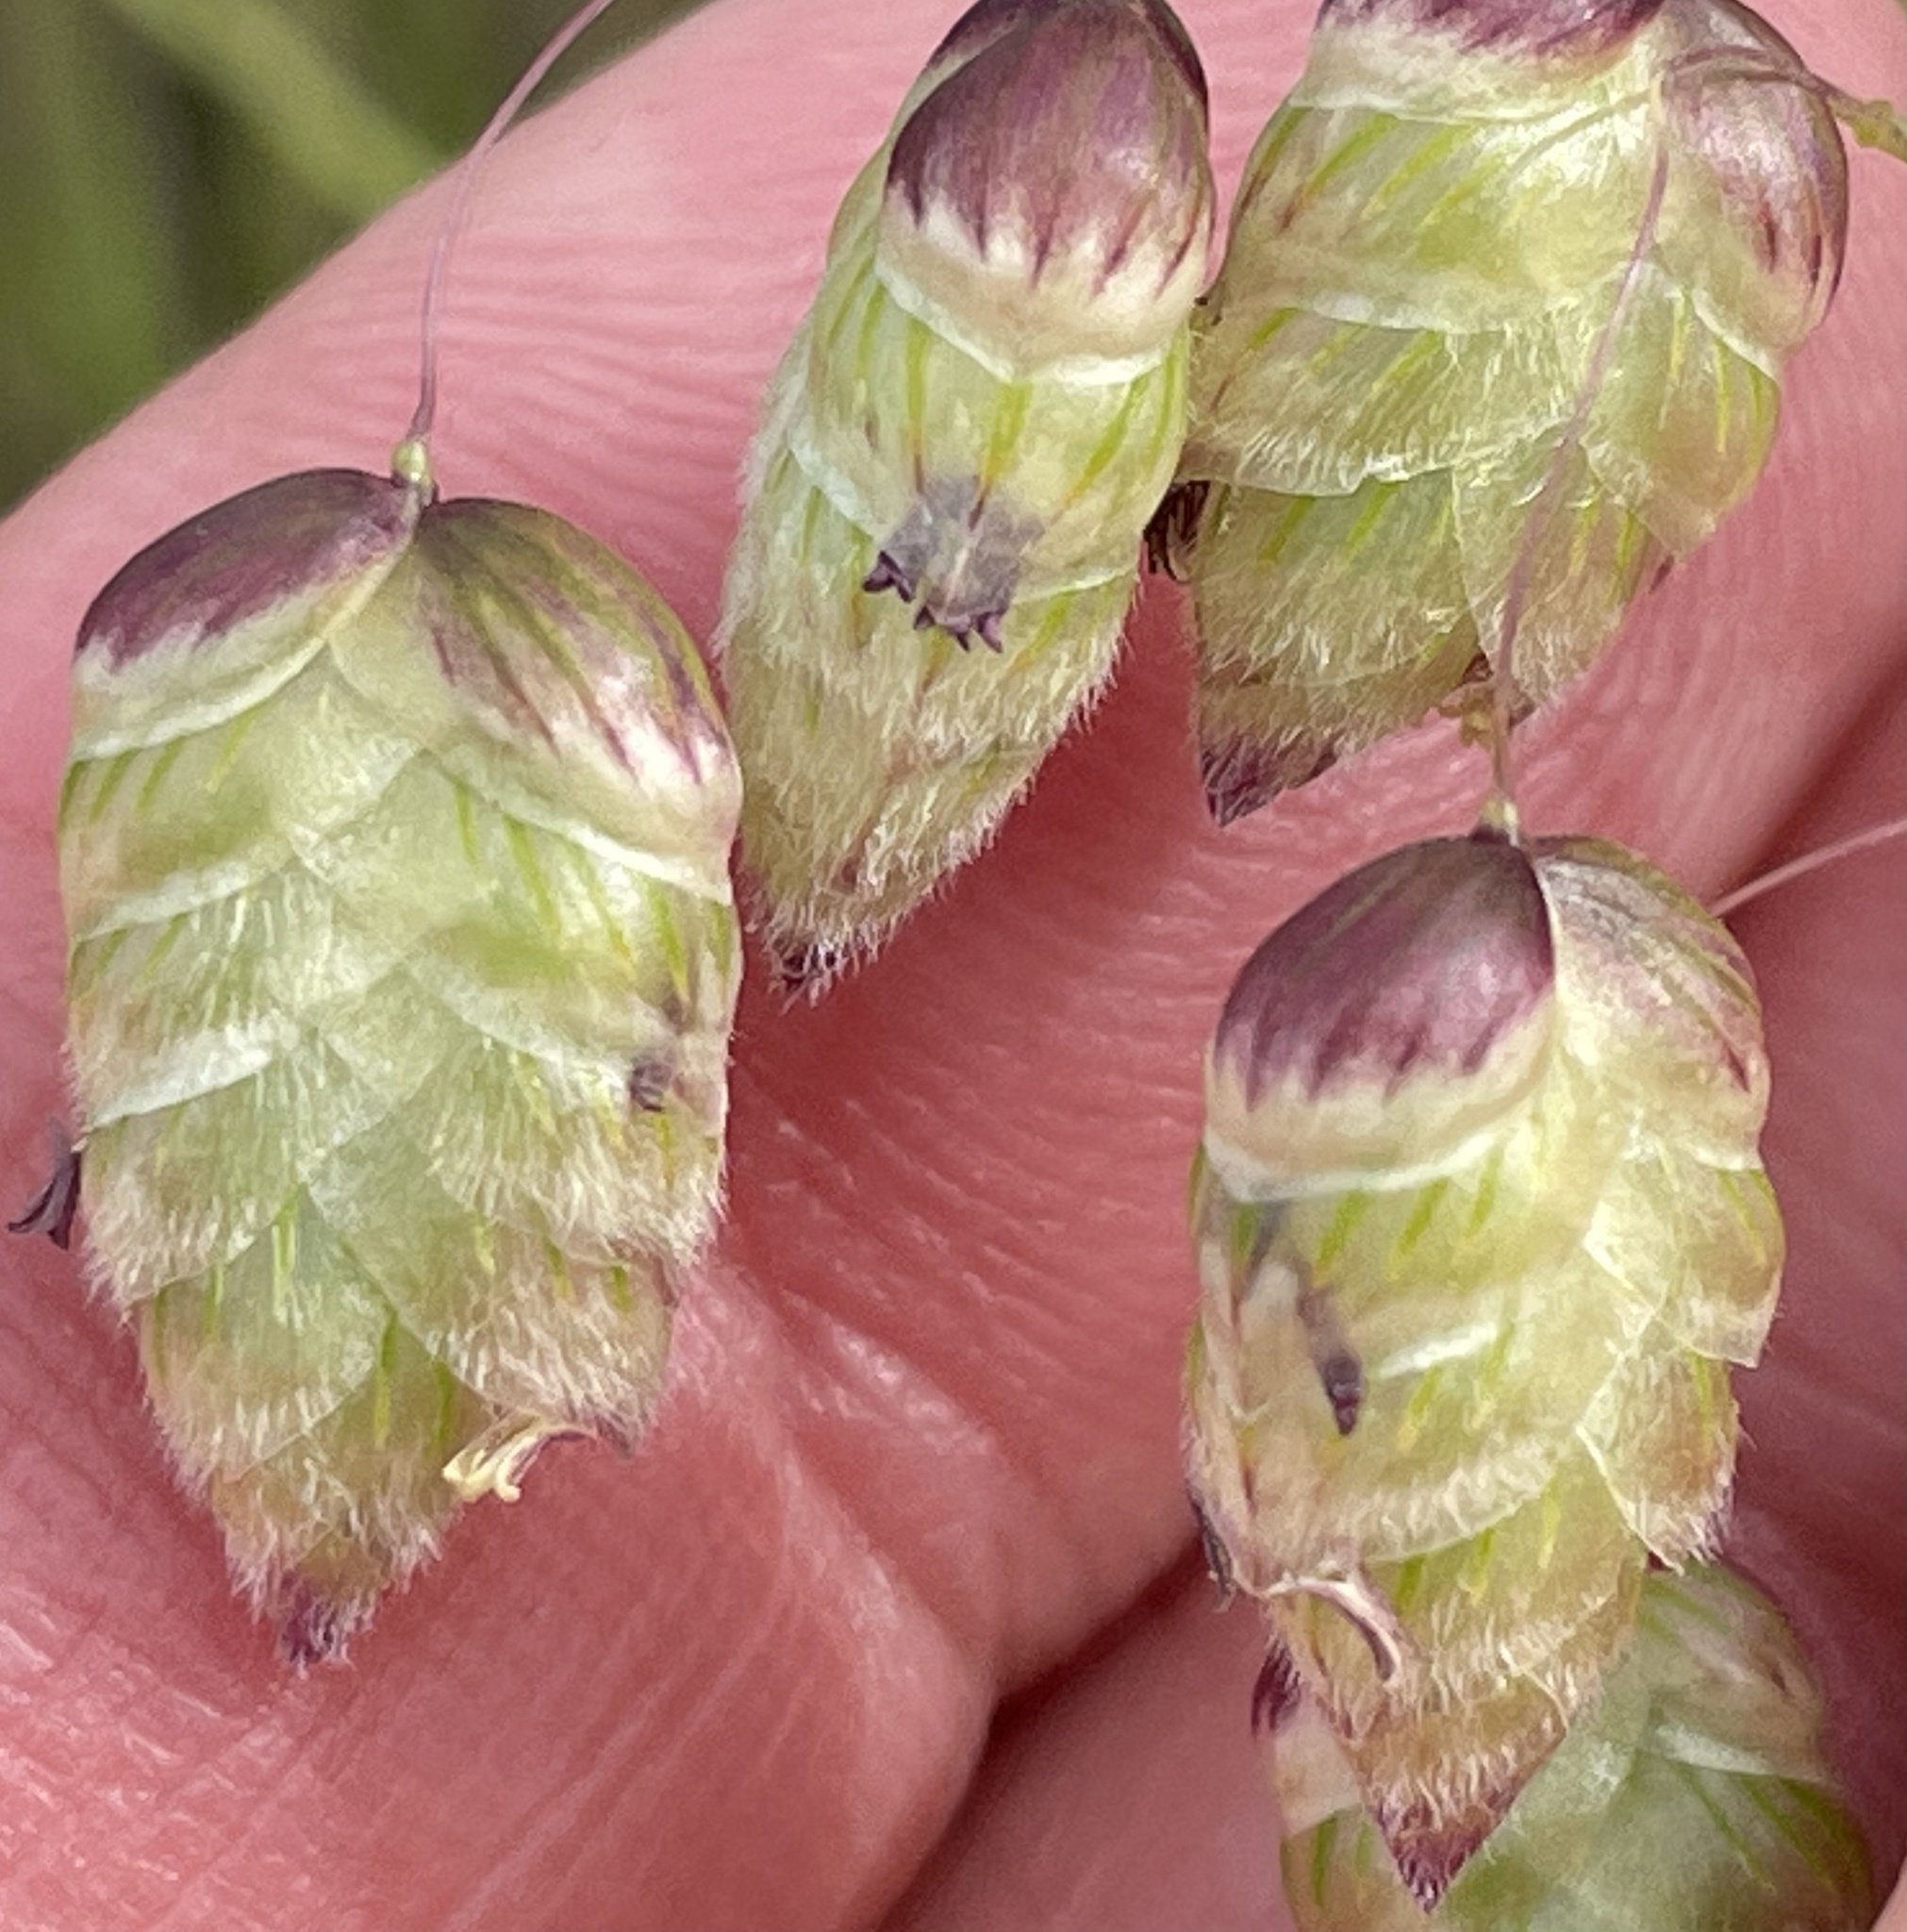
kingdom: Plantae
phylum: Tracheophyta
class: Liliopsida
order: Poales
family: Poaceae
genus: Briza
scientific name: Briza maxima
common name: Big quakinggrass
